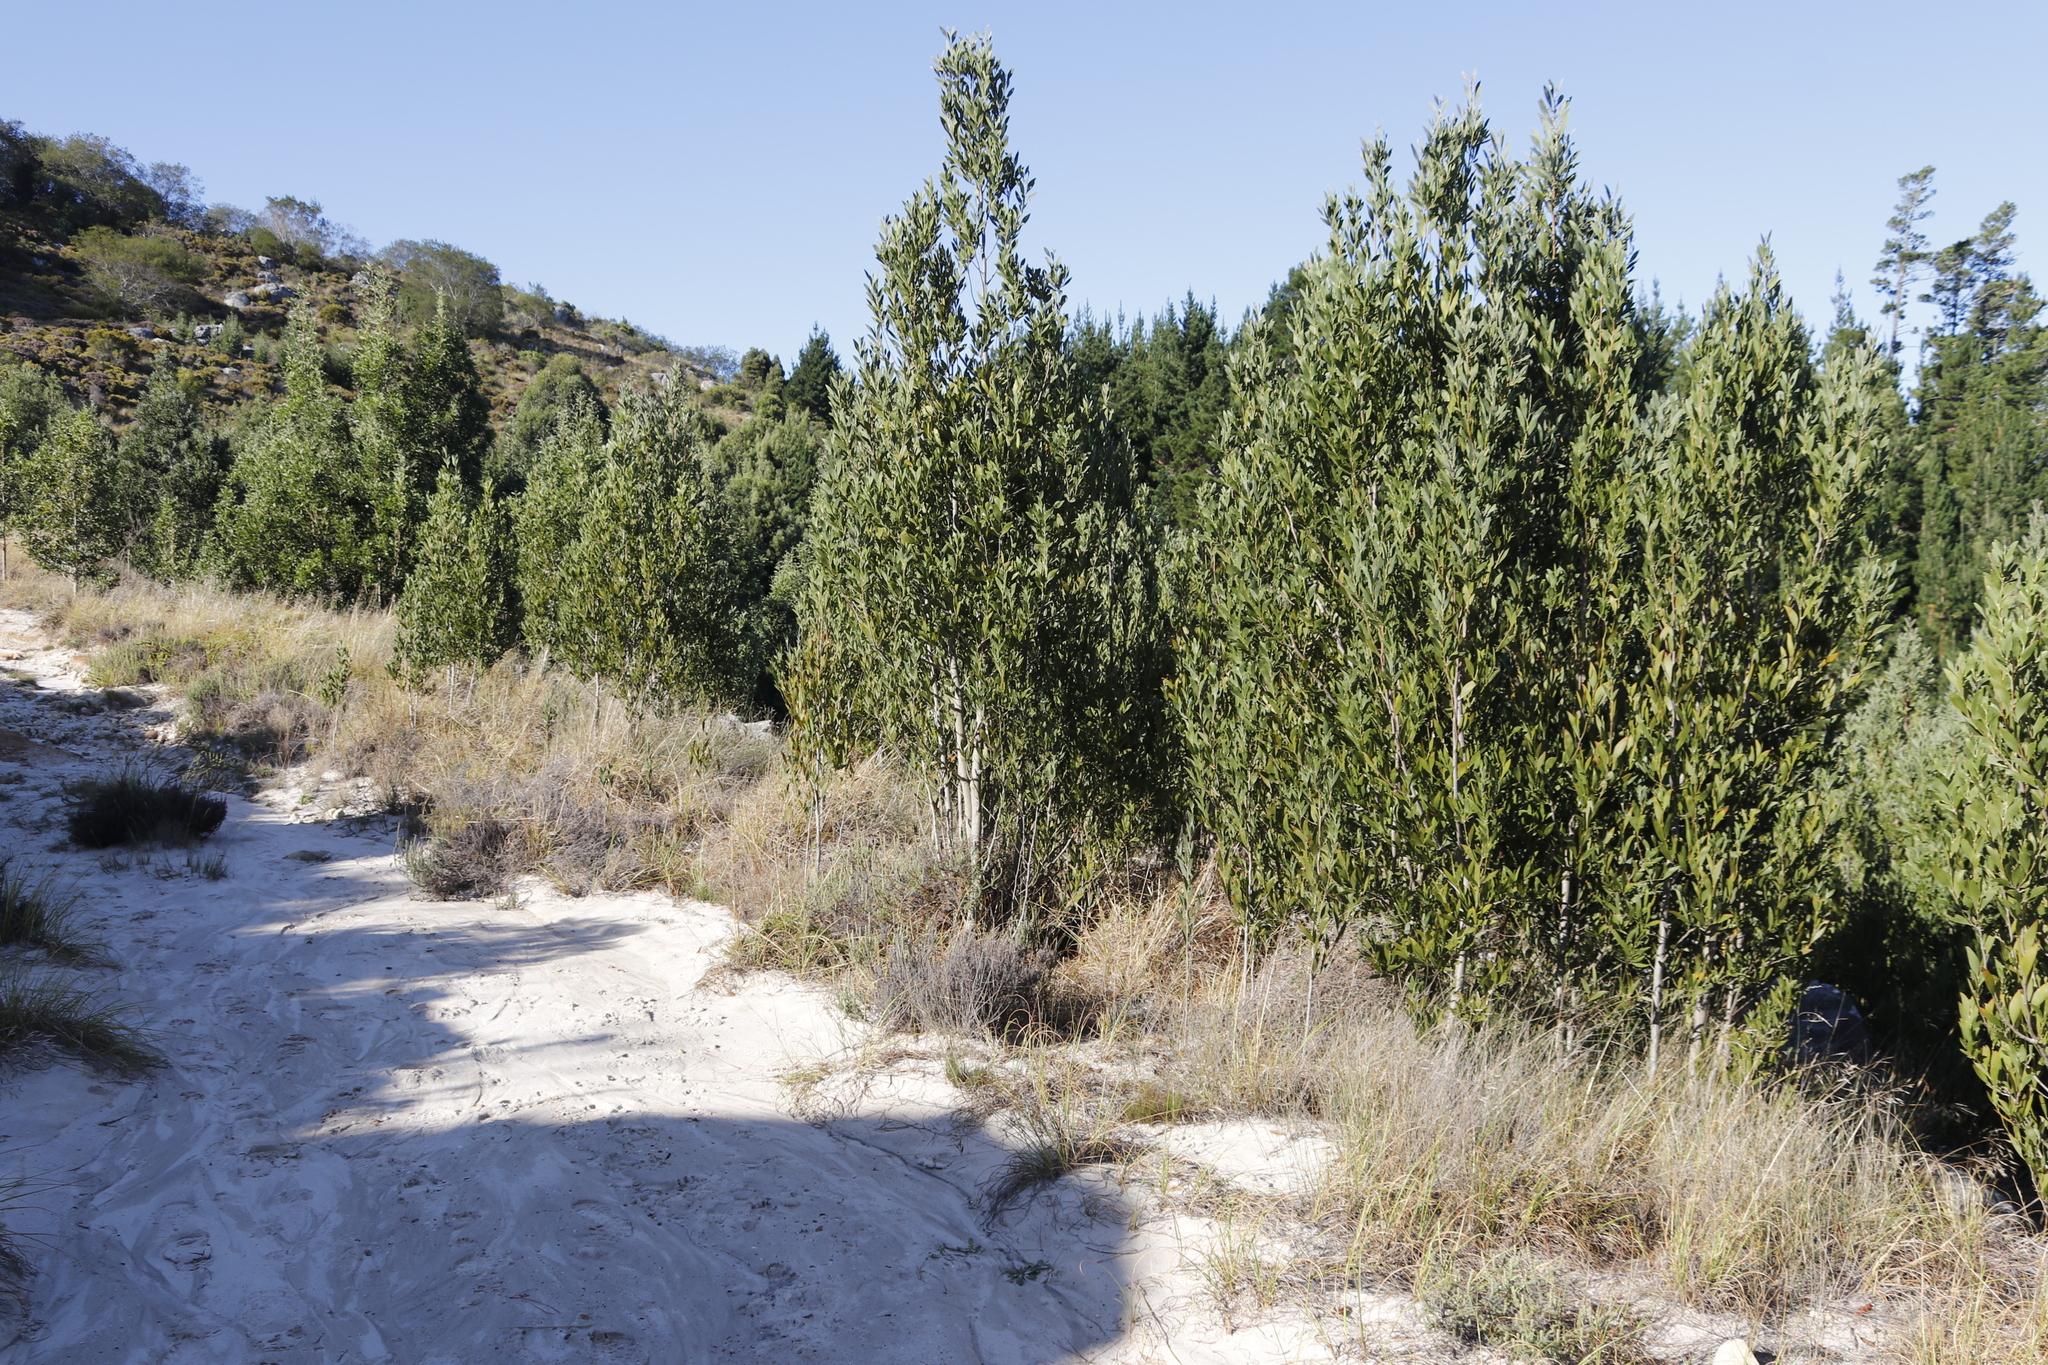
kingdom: Plantae
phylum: Tracheophyta
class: Magnoliopsida
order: Fabales
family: Fabaceae
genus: Acacia
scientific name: Acacia melanoxylon
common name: Blackwood
